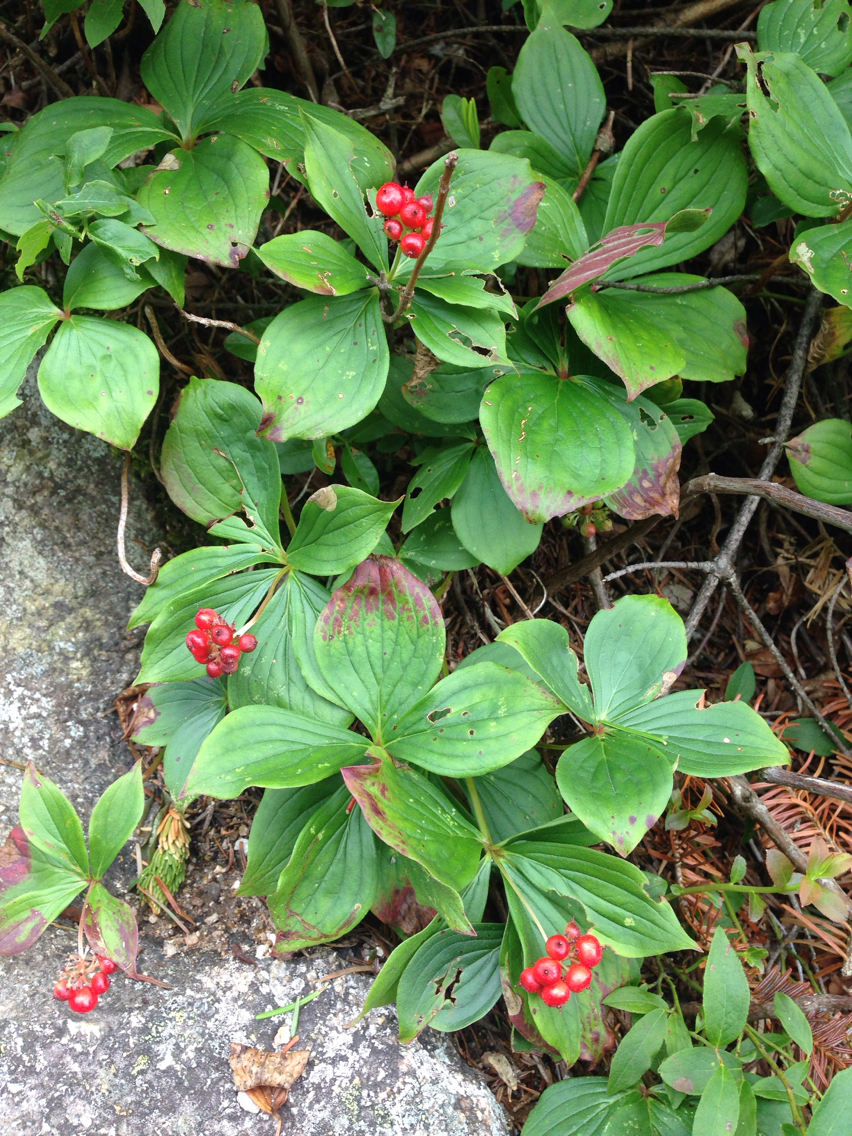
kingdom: Plantae
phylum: Tracheophyta
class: Magnoliopsida
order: Cornales
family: Cornaceae
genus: Cornus
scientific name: Cornus canadensis
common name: Creeping dogwood
